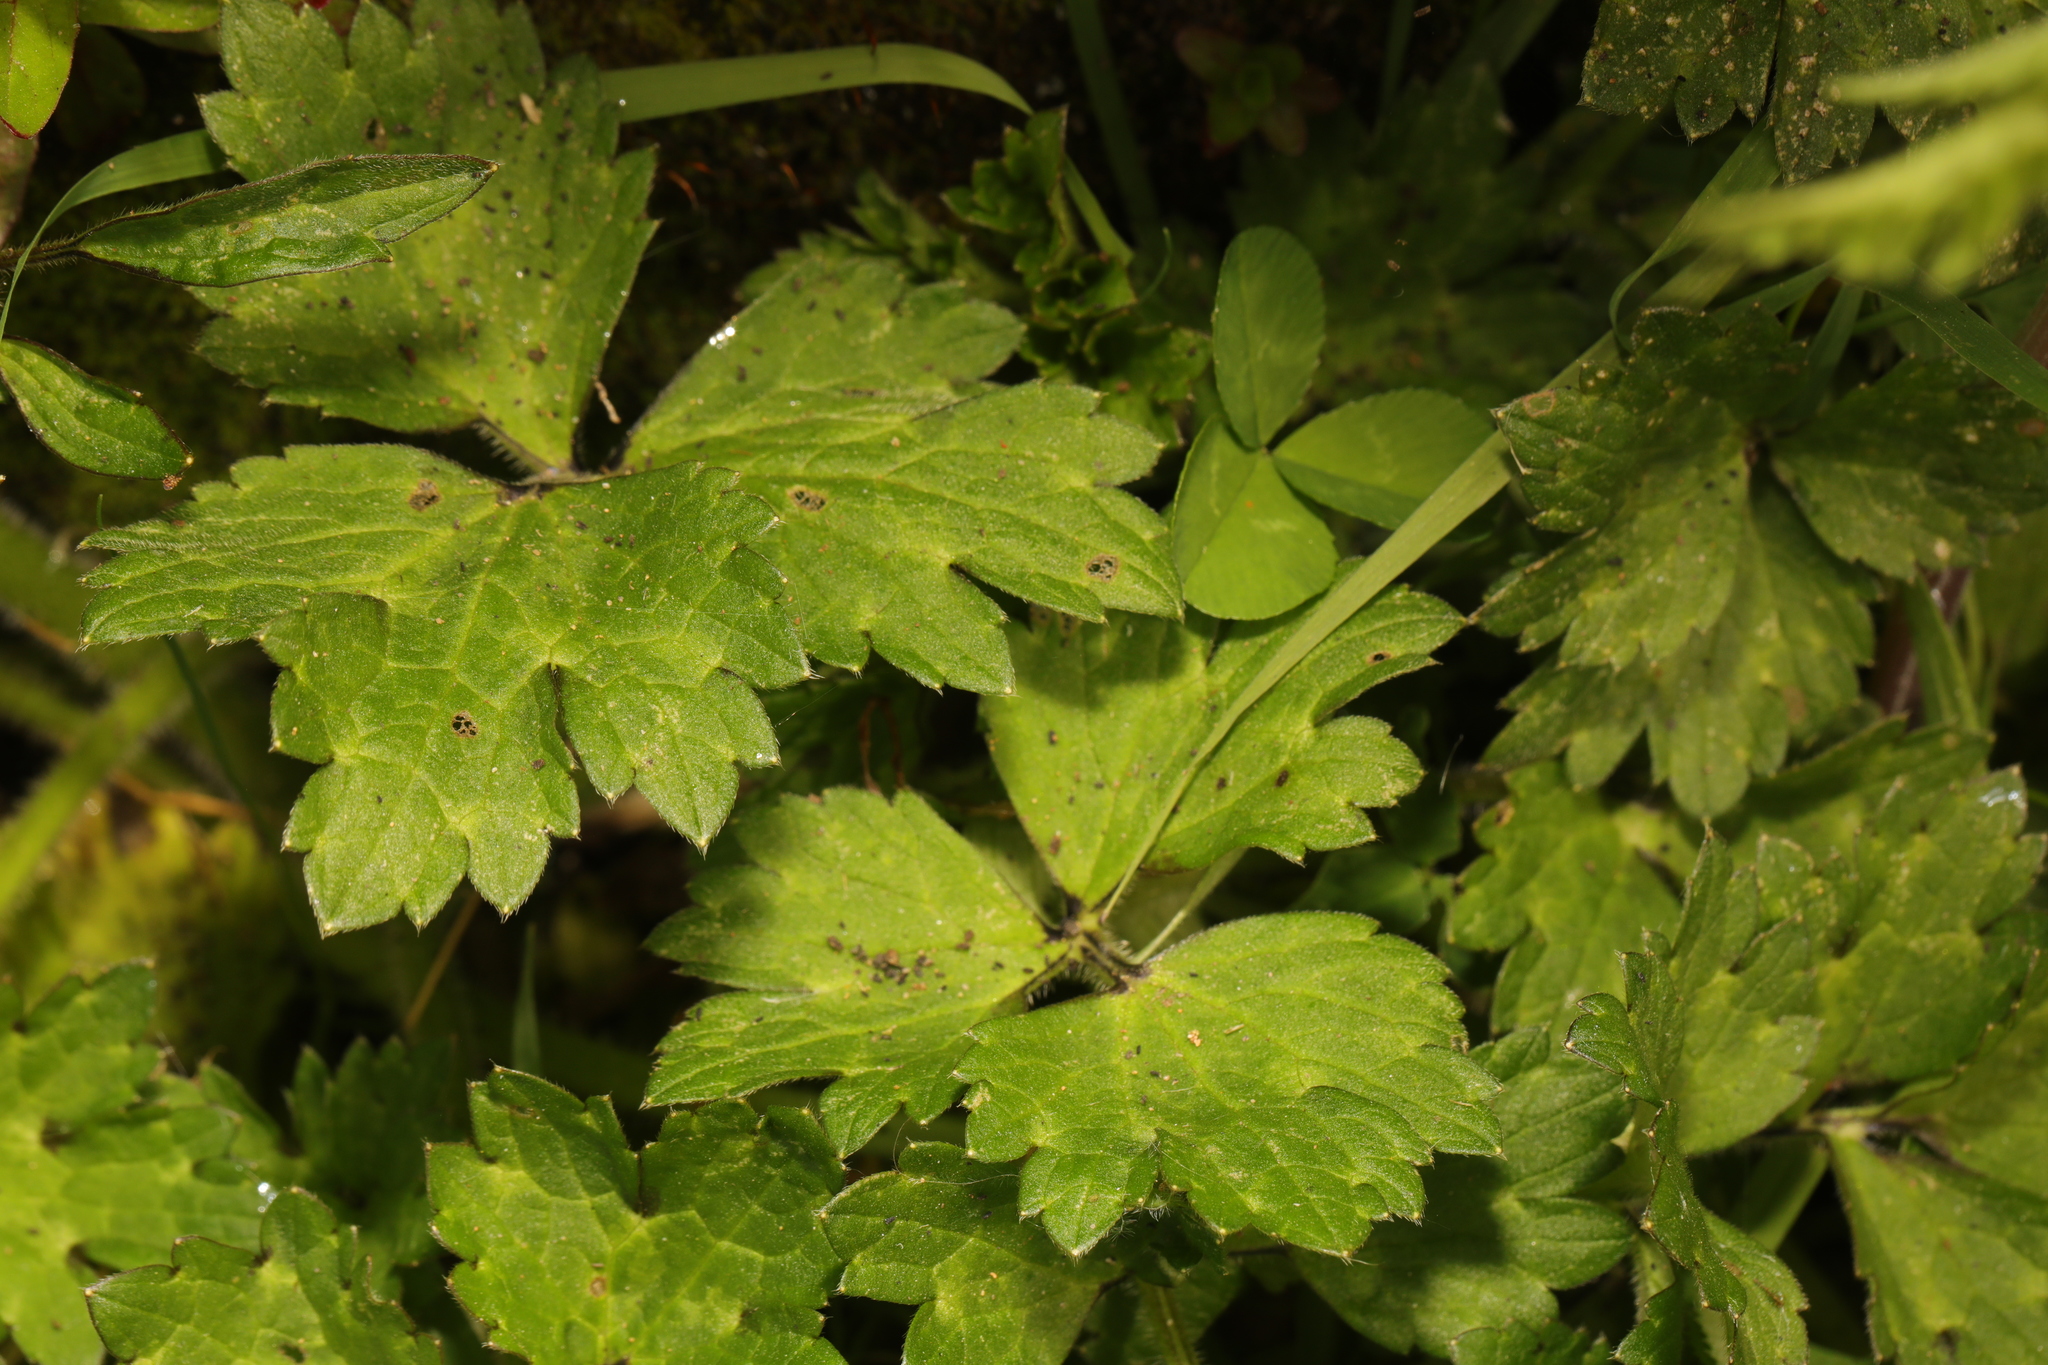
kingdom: Plantae
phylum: Tracheophyta
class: Magnoliopsida
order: Ranunculales
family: Ranunculaceae
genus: Ranunculus
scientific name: Ranunculus repens
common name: Creeping buttercup
